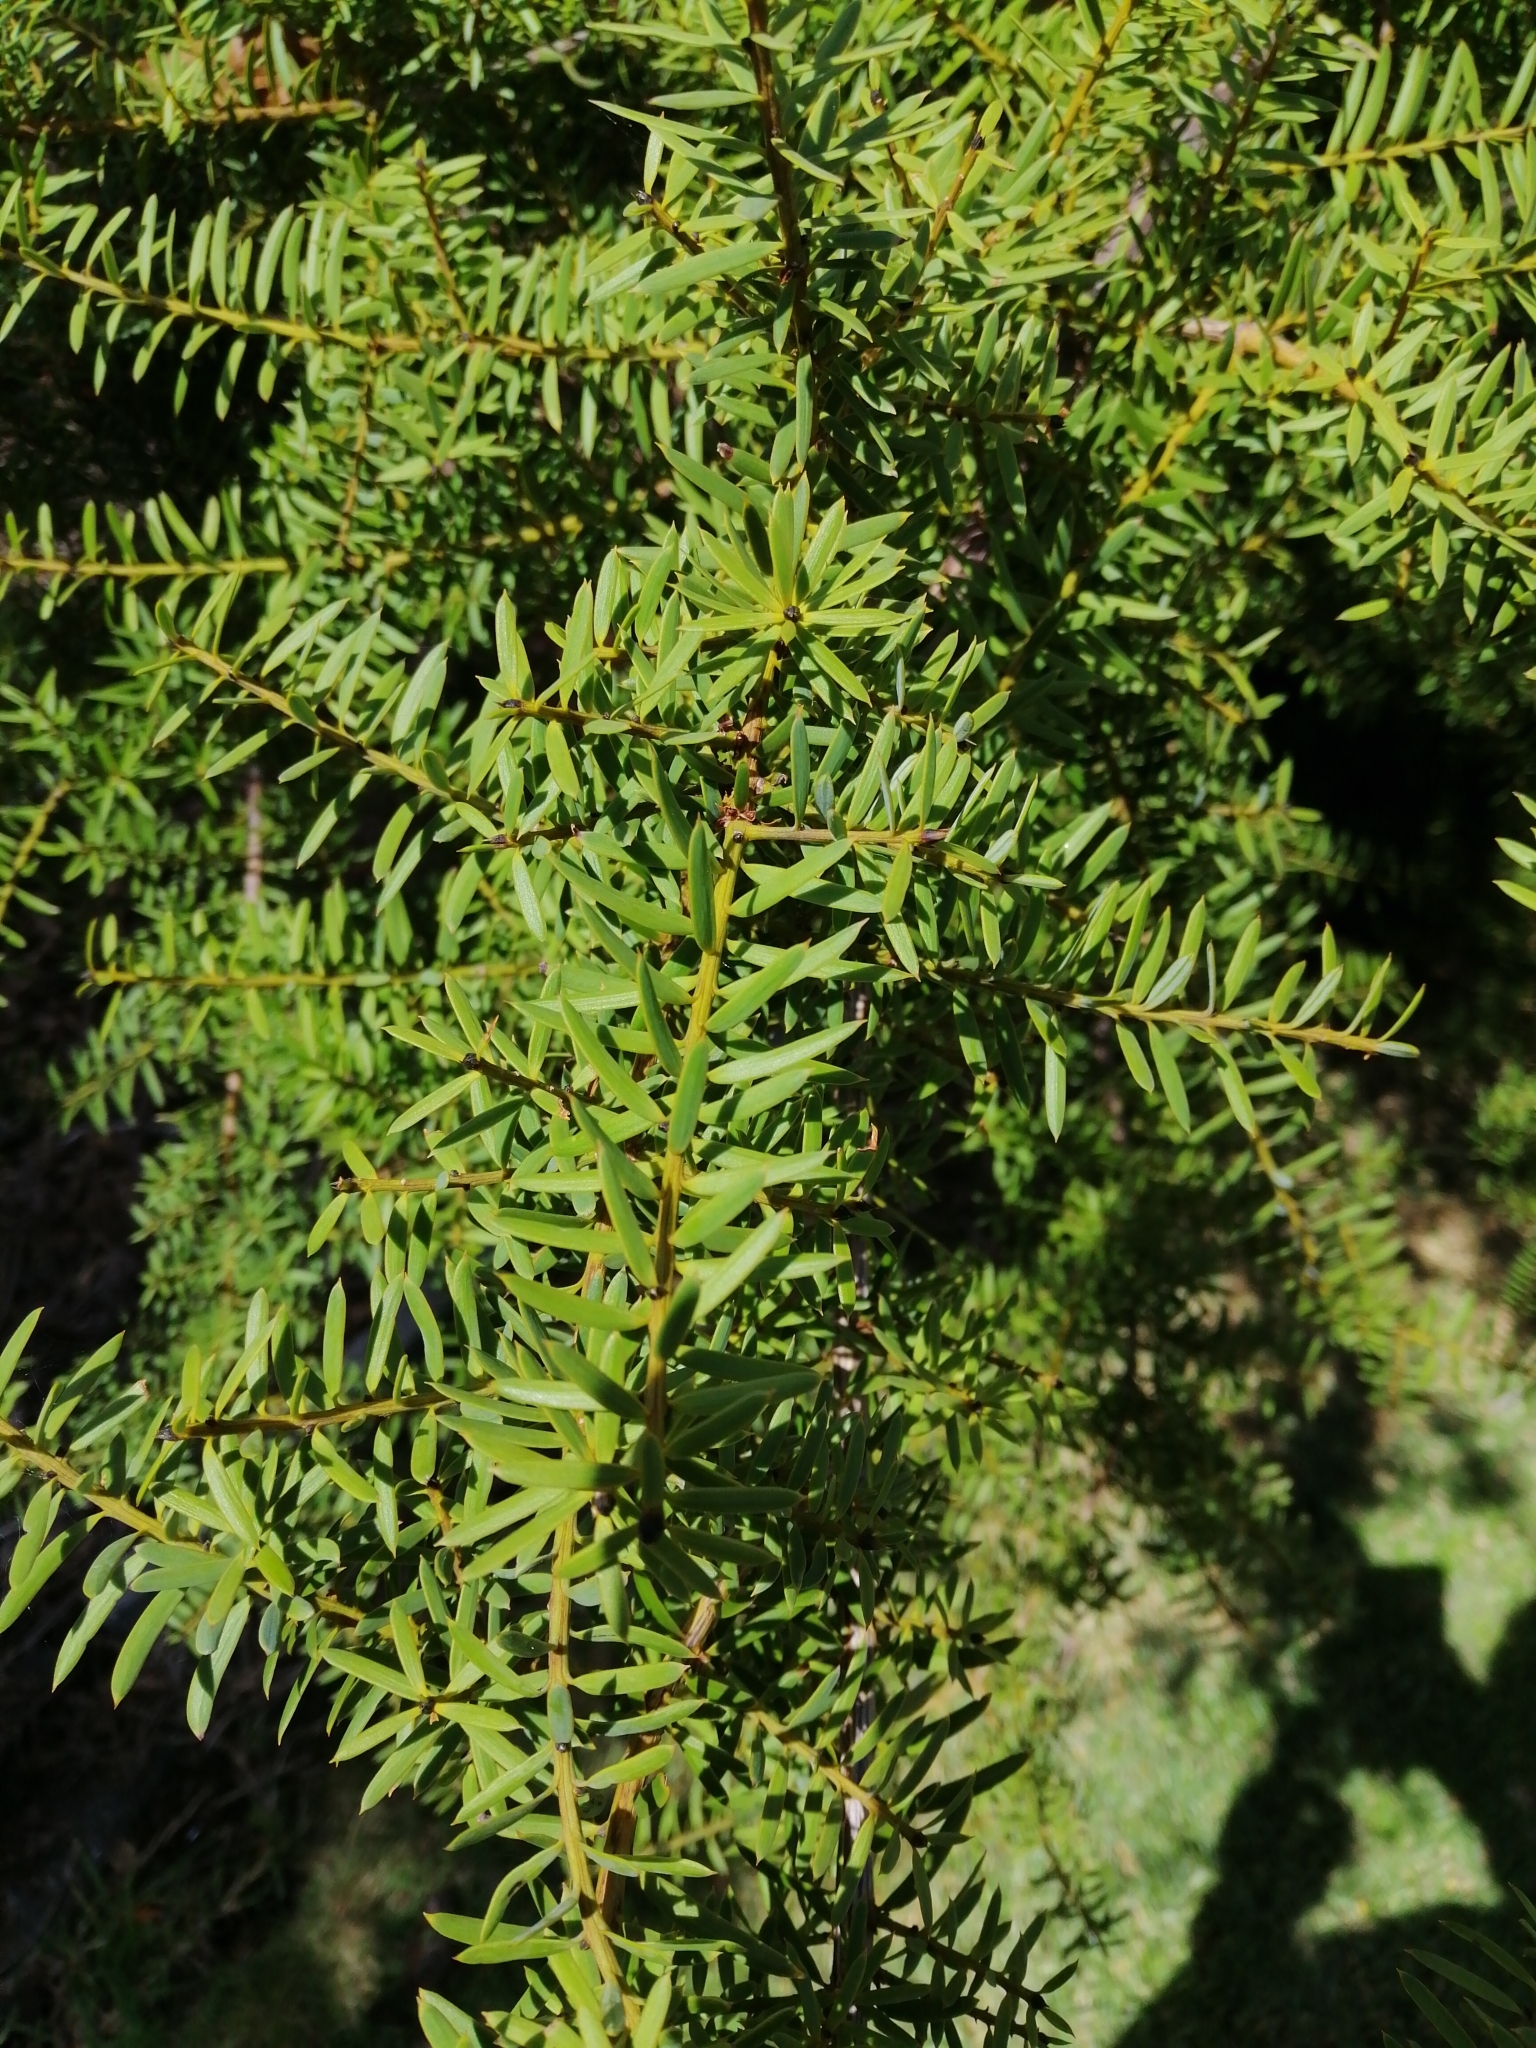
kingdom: Plantae
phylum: Tracheophyta
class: Pinopsida
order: Pinales
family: Podocarpaceae
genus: Podocarpus
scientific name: Podocarpus totara
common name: Totara
